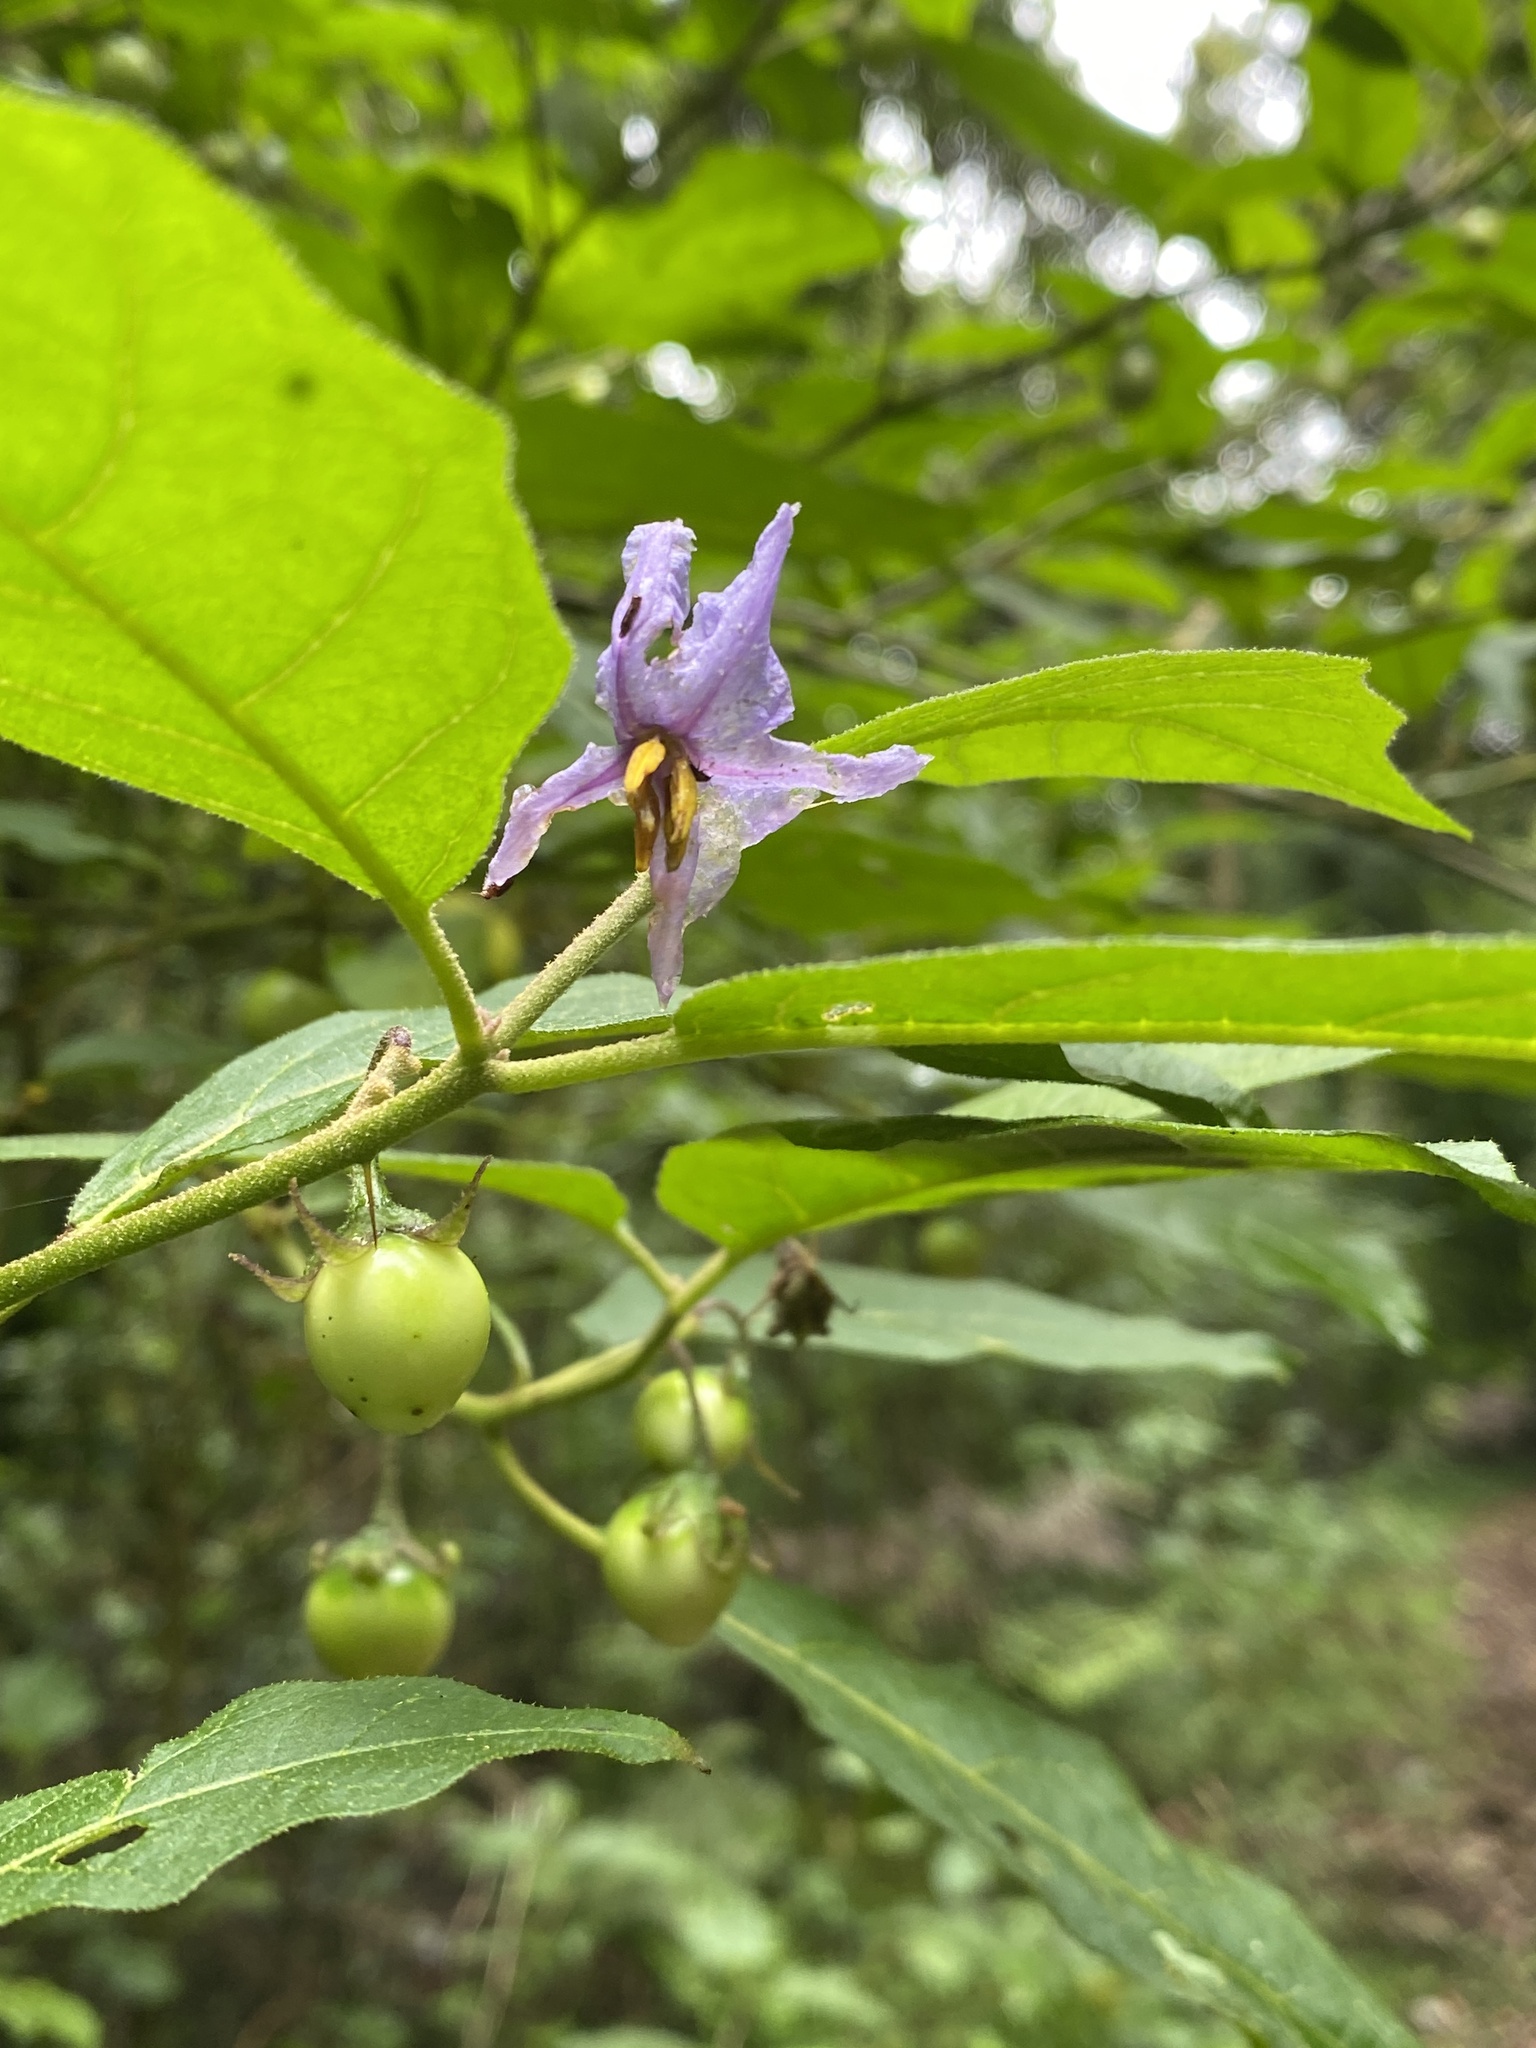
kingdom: Plantae
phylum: Tracheophyta
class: Magnoliopsida
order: Solanales
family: Solanaceae
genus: Solanum
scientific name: Solanum rixosum
